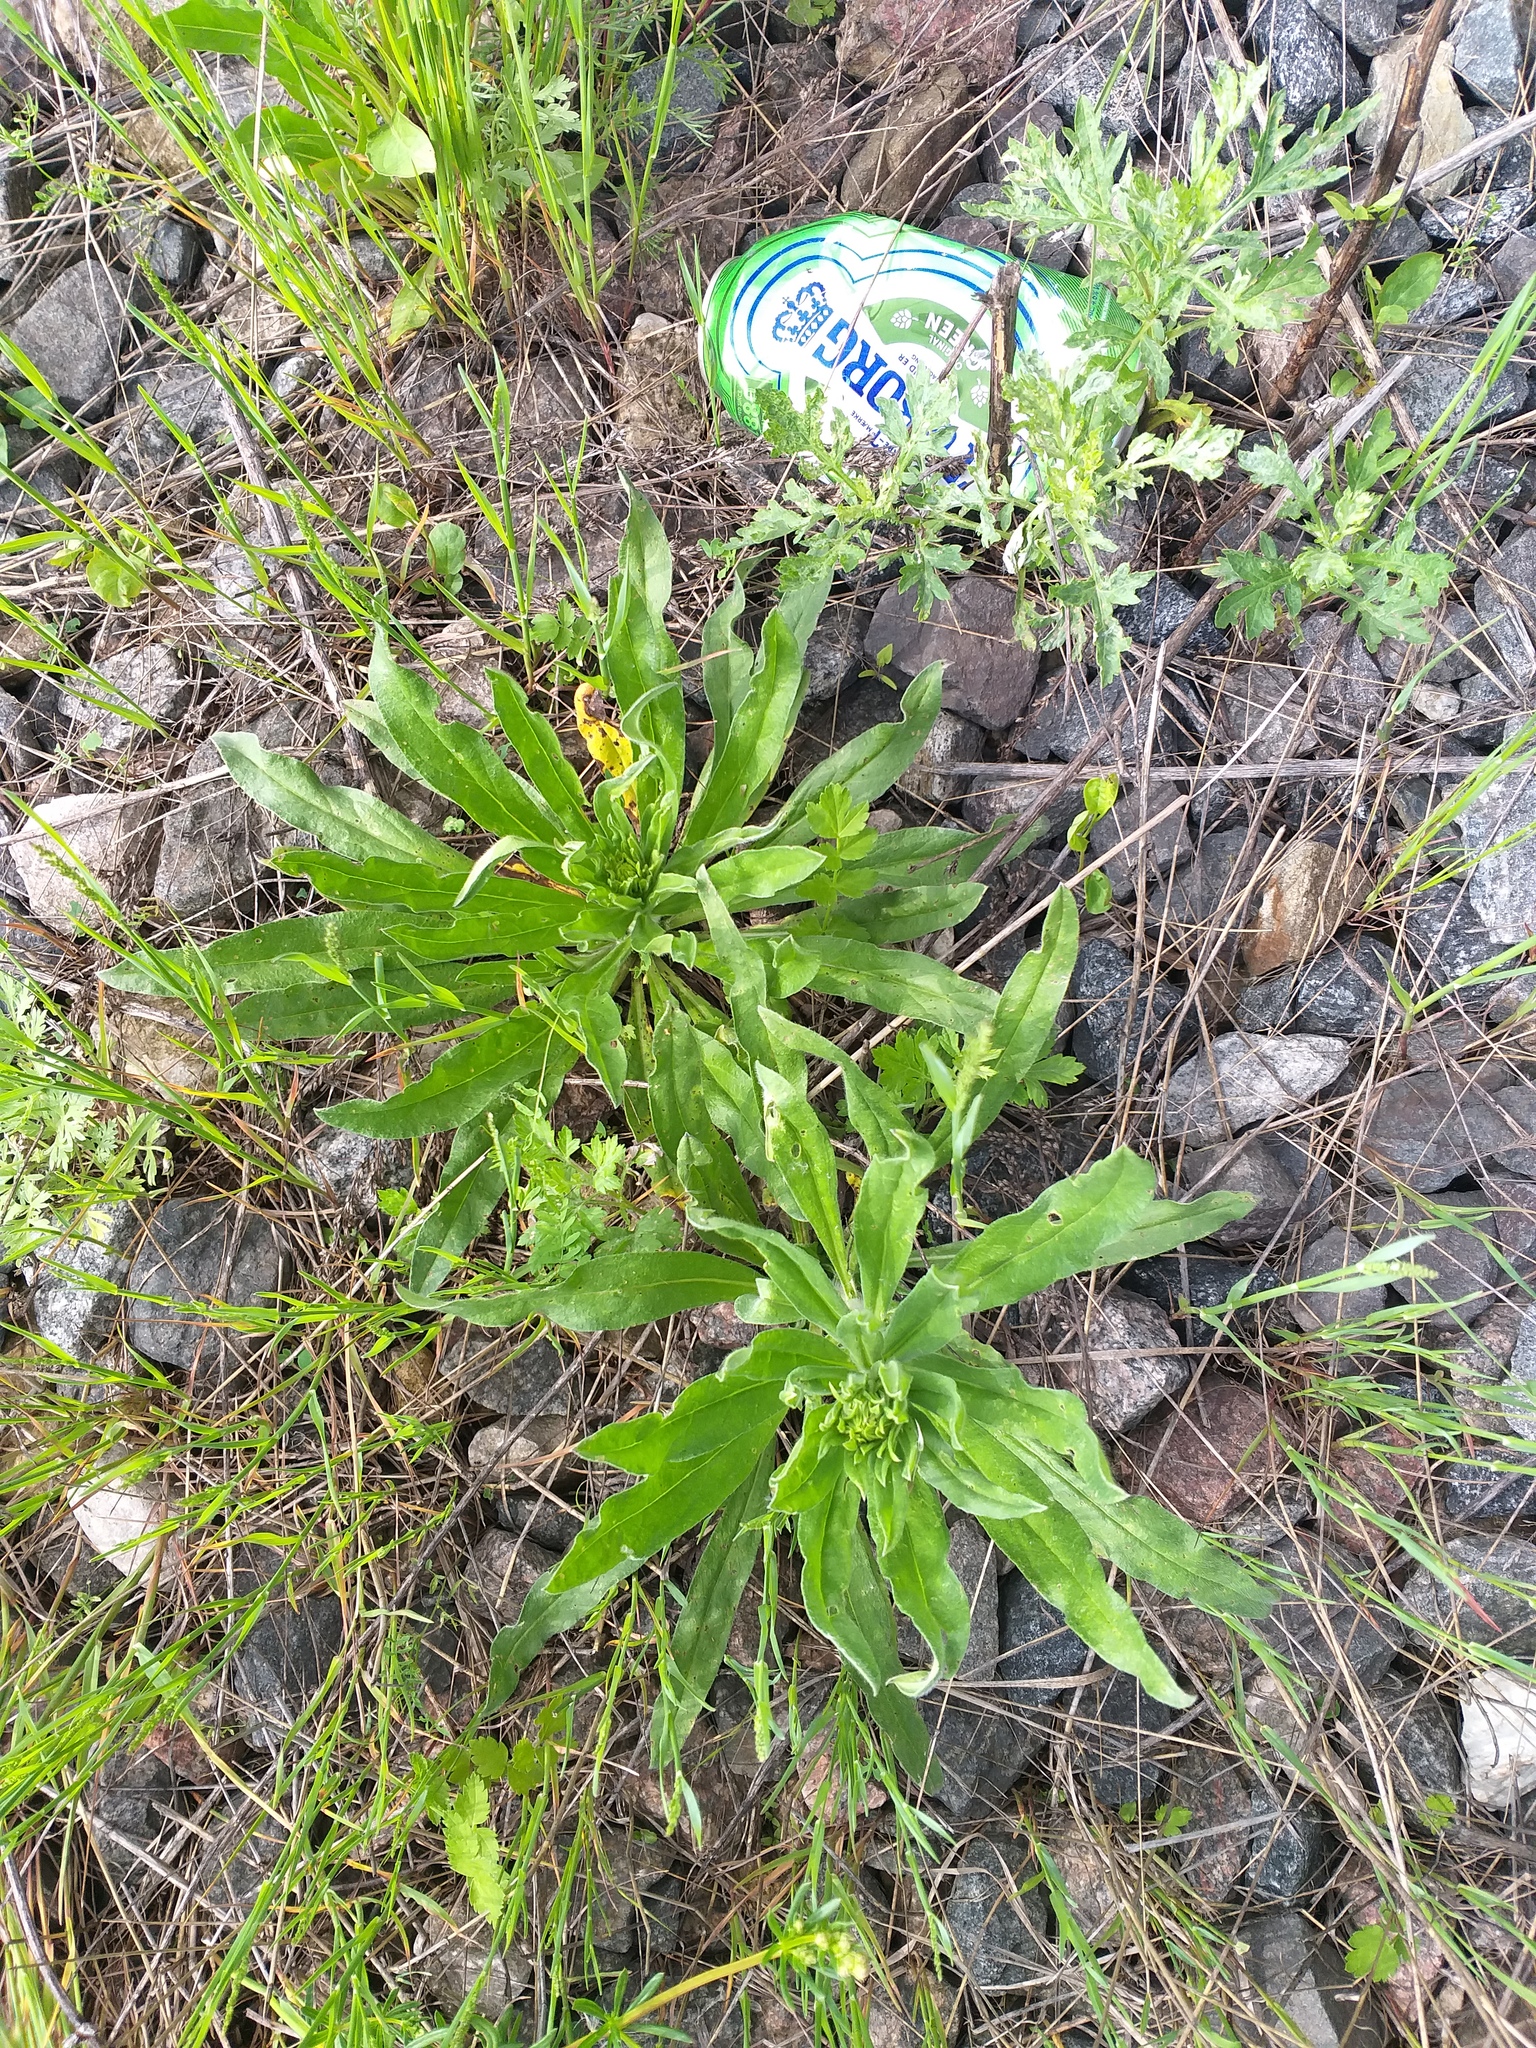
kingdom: Plantae
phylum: Tracheophyta
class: Magnoliopsida
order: Boraginales
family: Boraginaceae
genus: Echium
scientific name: Echium vulgare
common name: Common viper's bugloss
